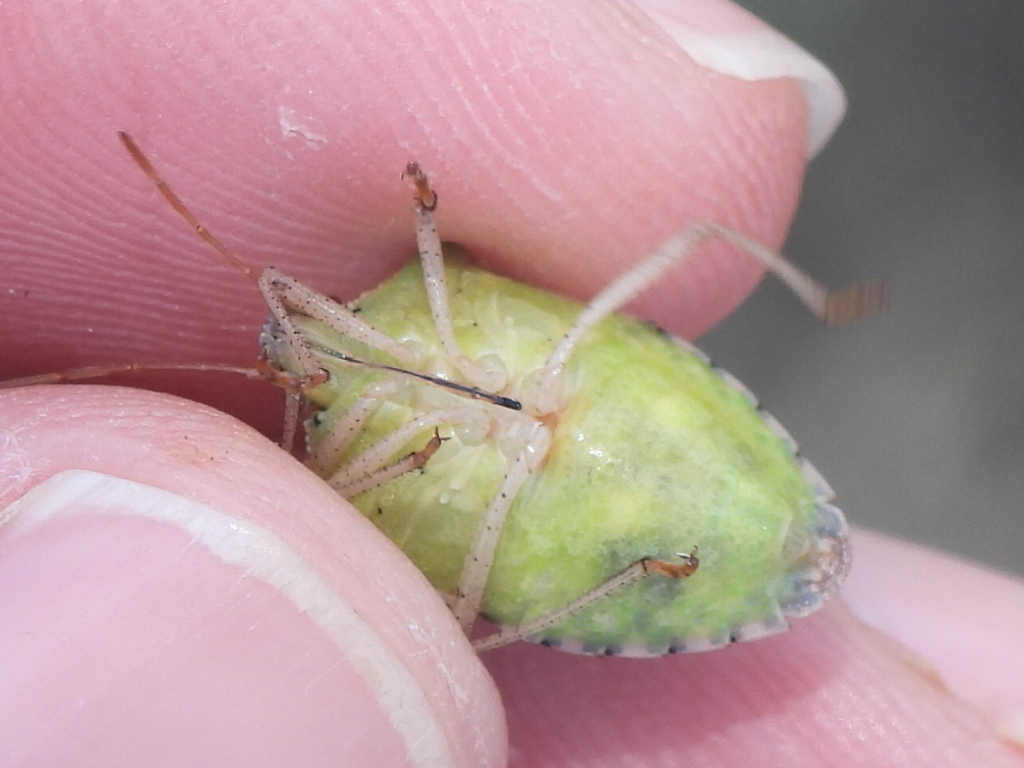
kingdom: Animalia
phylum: Arthropoda
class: Insecta
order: Hemiptera
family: Pentatomidae
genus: Euschistus
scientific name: Euschistus servus
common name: Brown stink bug
